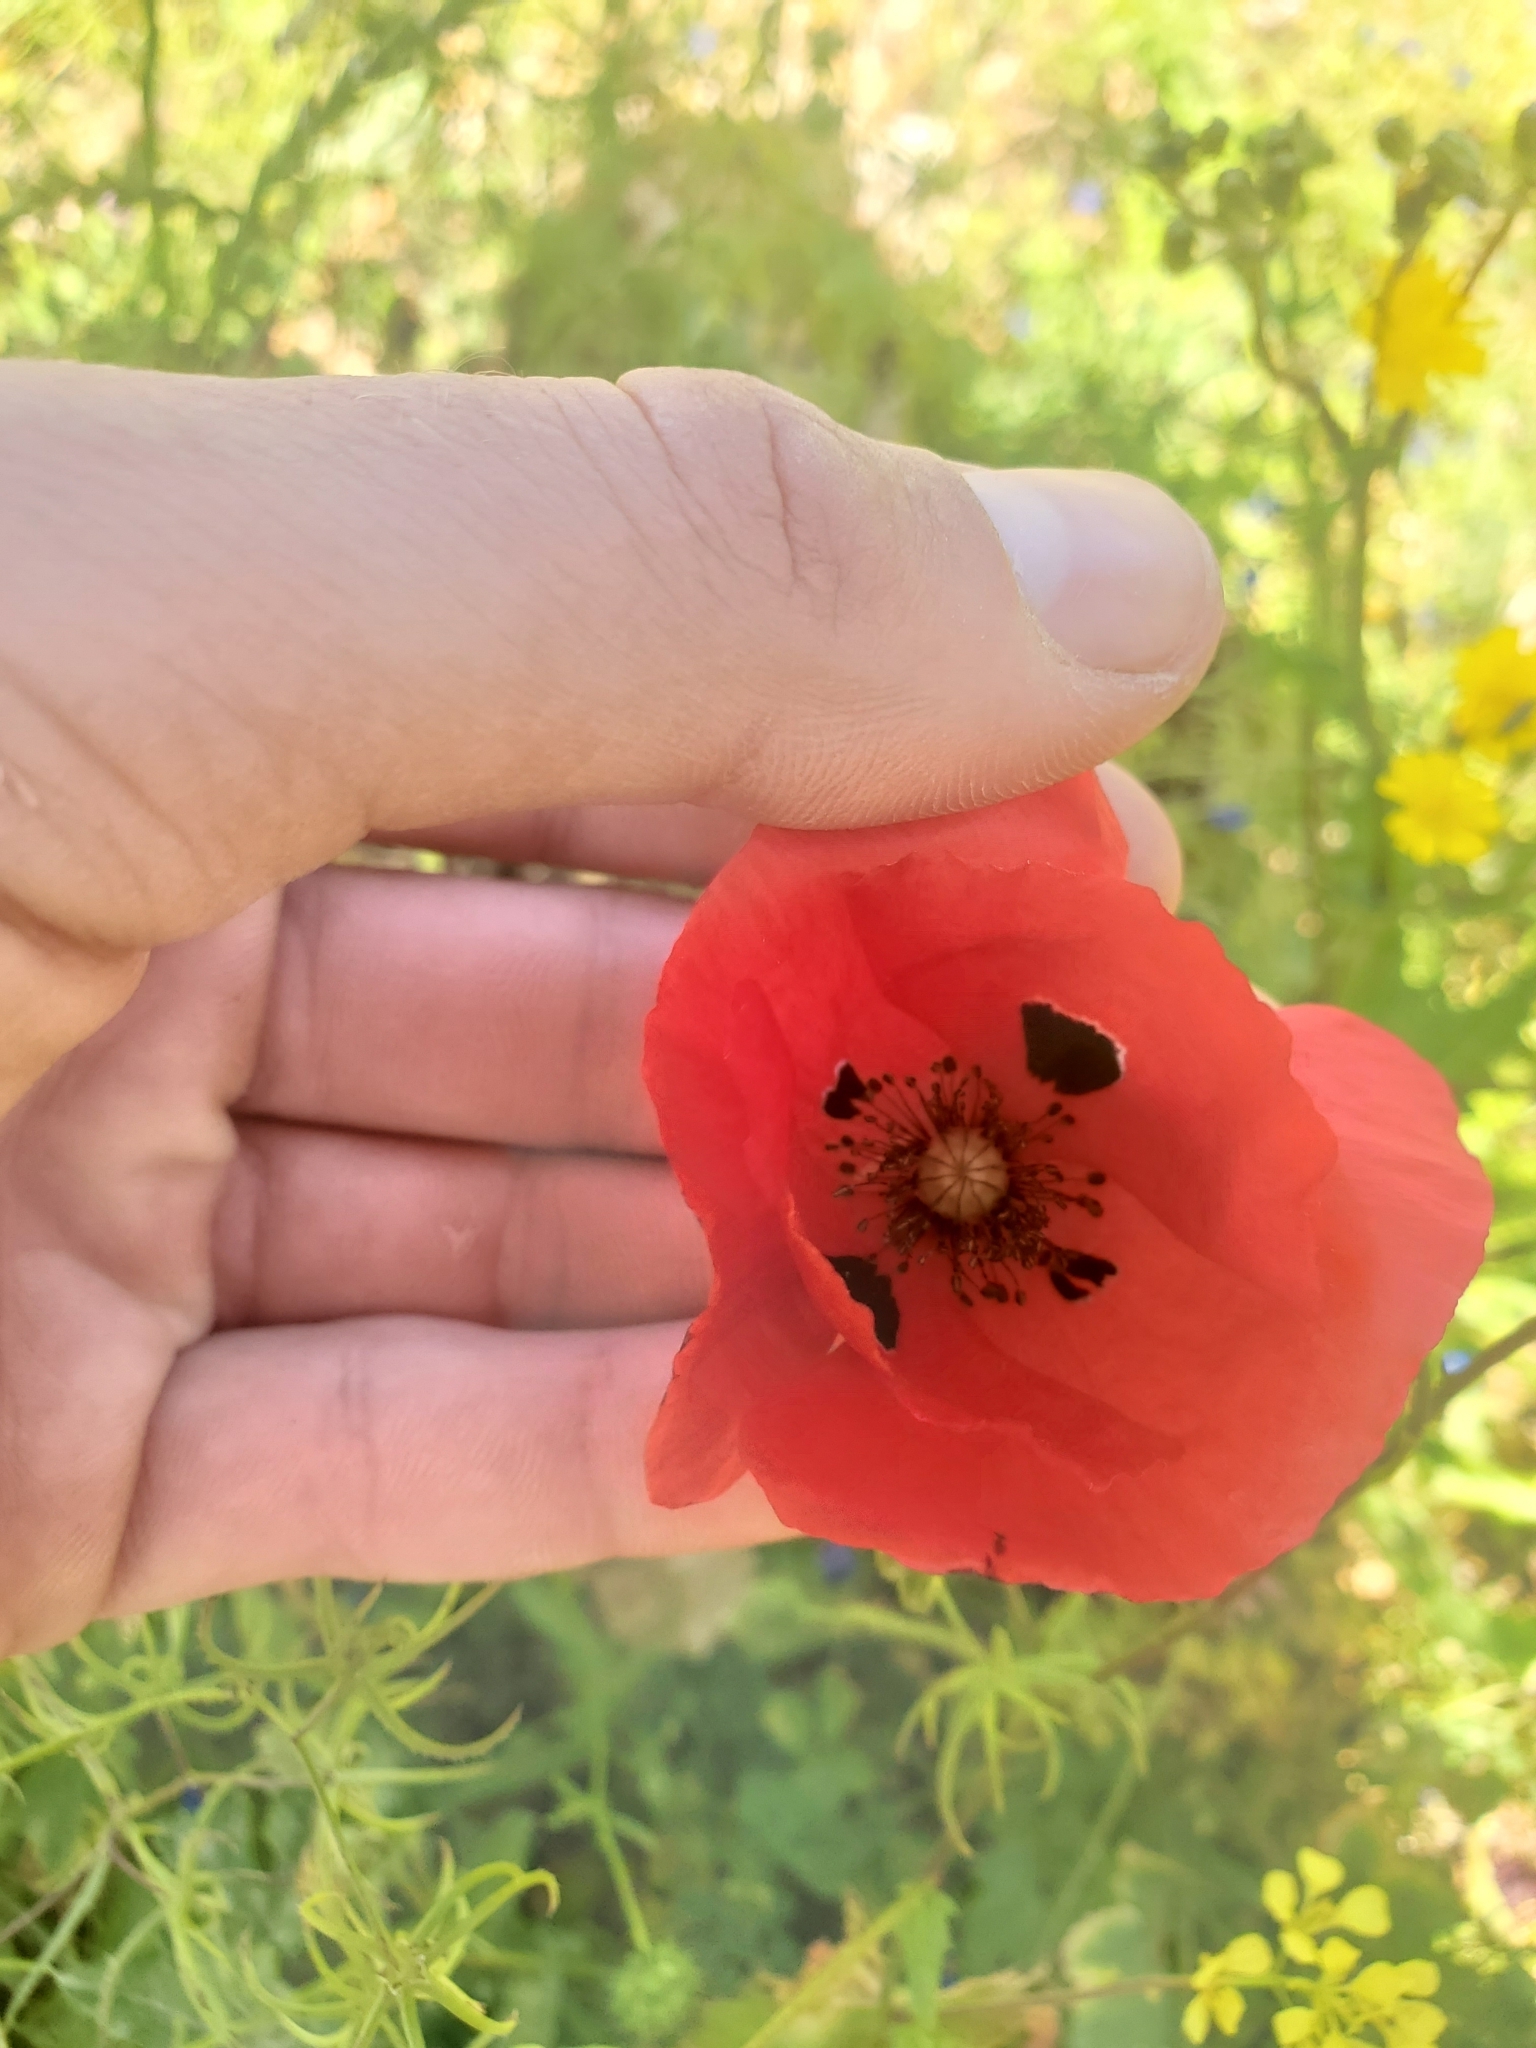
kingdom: Plantae
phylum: Tracheophyta
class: Magnoliopsida
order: Ranunculales
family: Papaveraceae
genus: Papaver
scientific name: Papaver umbonatum
